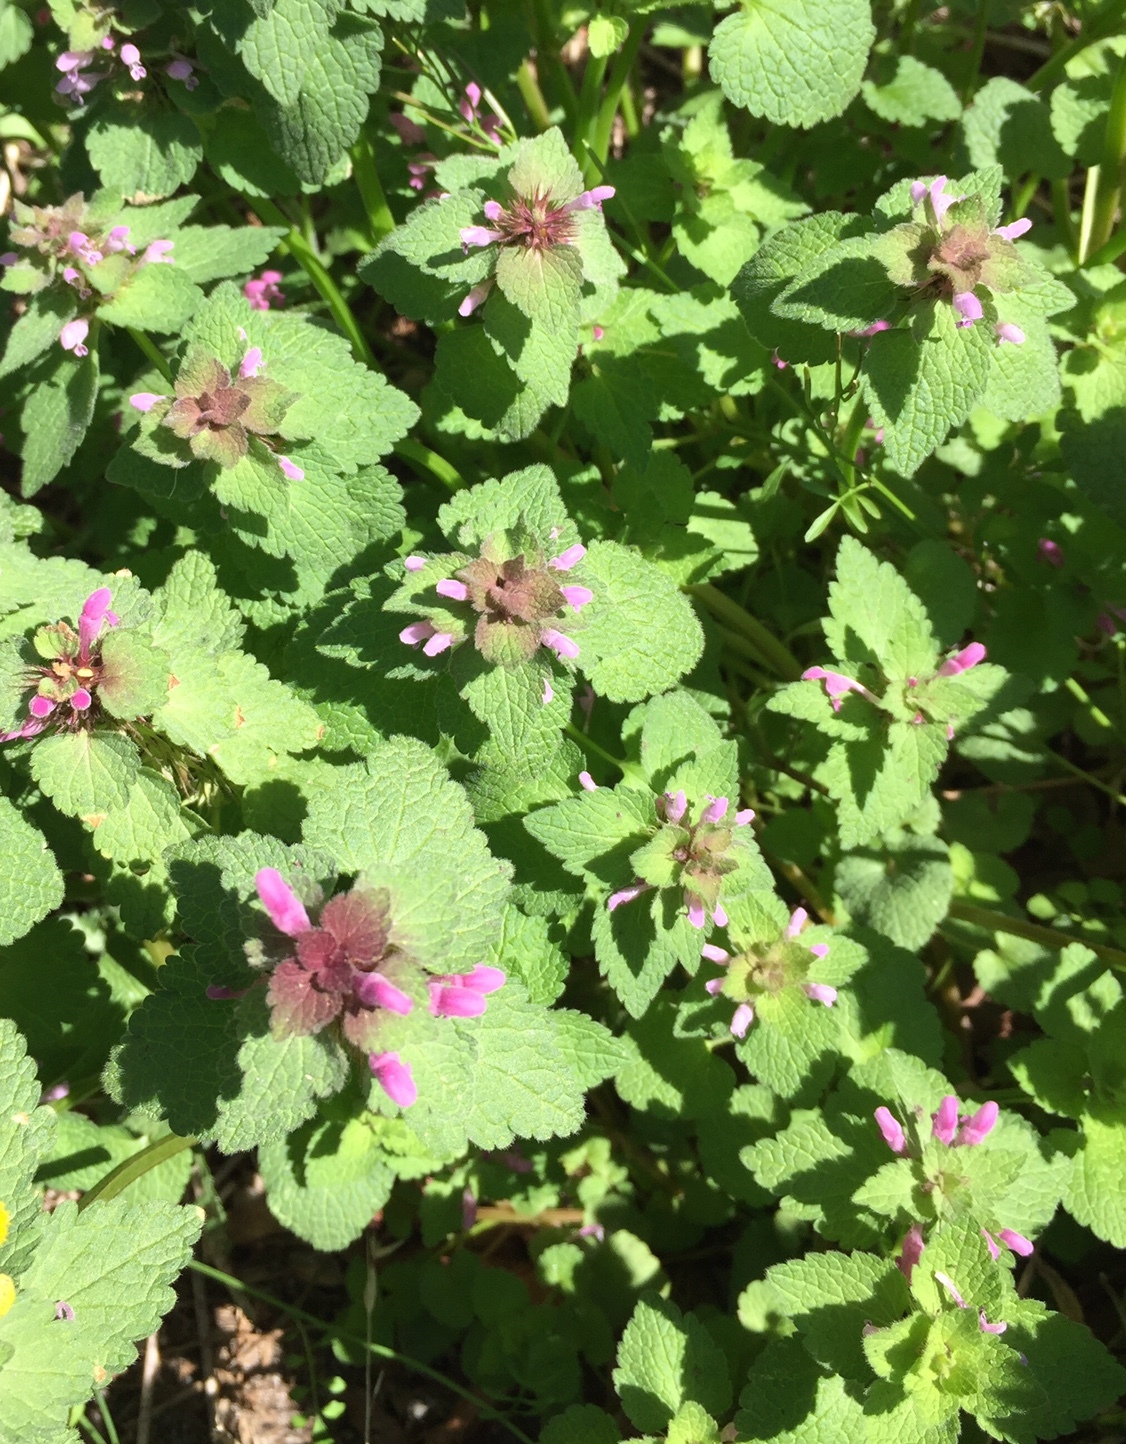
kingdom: Plantae
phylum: Tracheophyta
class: Magnoliopsida
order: Lamiales
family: Lamiaceae
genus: Lamium
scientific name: Lamium purpureum
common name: Red dead-nettle
